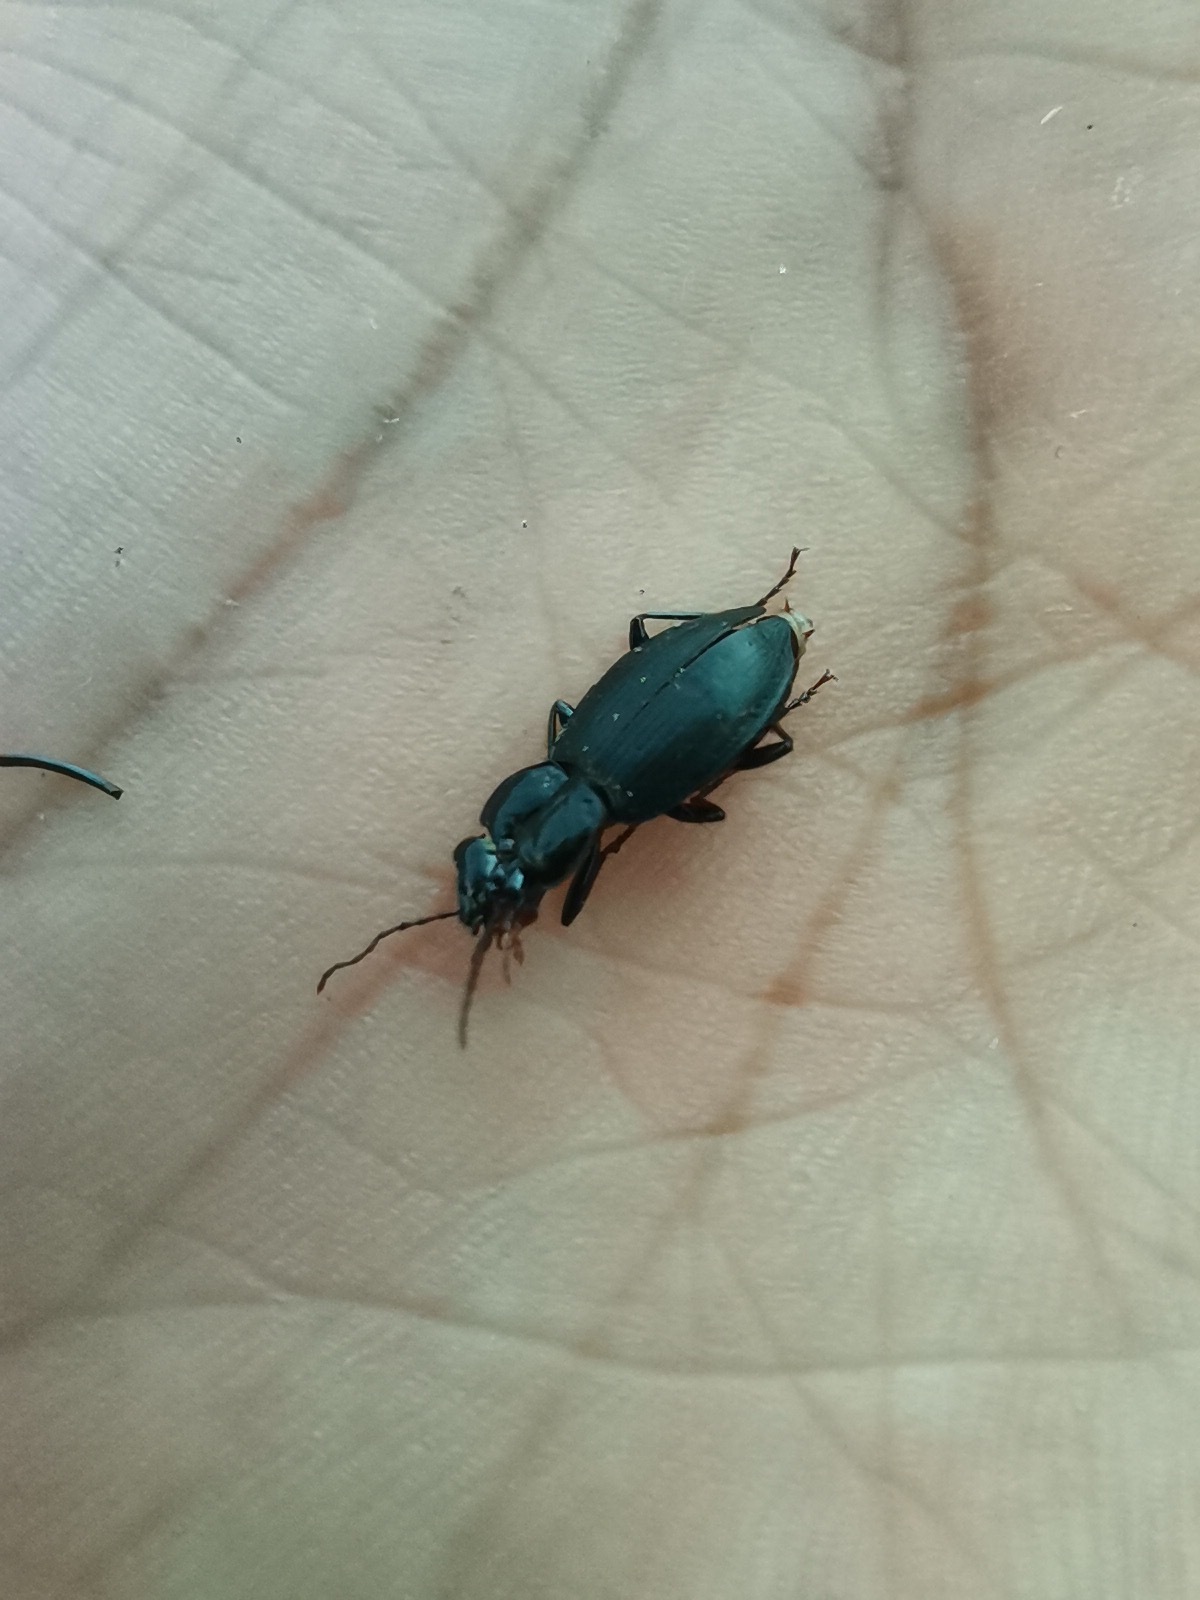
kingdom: Animalia
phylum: Arthropoda
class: Insecta
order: Coleoptera
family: Carabidae
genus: Laemostenus
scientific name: Laemostenus complanatus
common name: Cosmopolitan ground beetle
